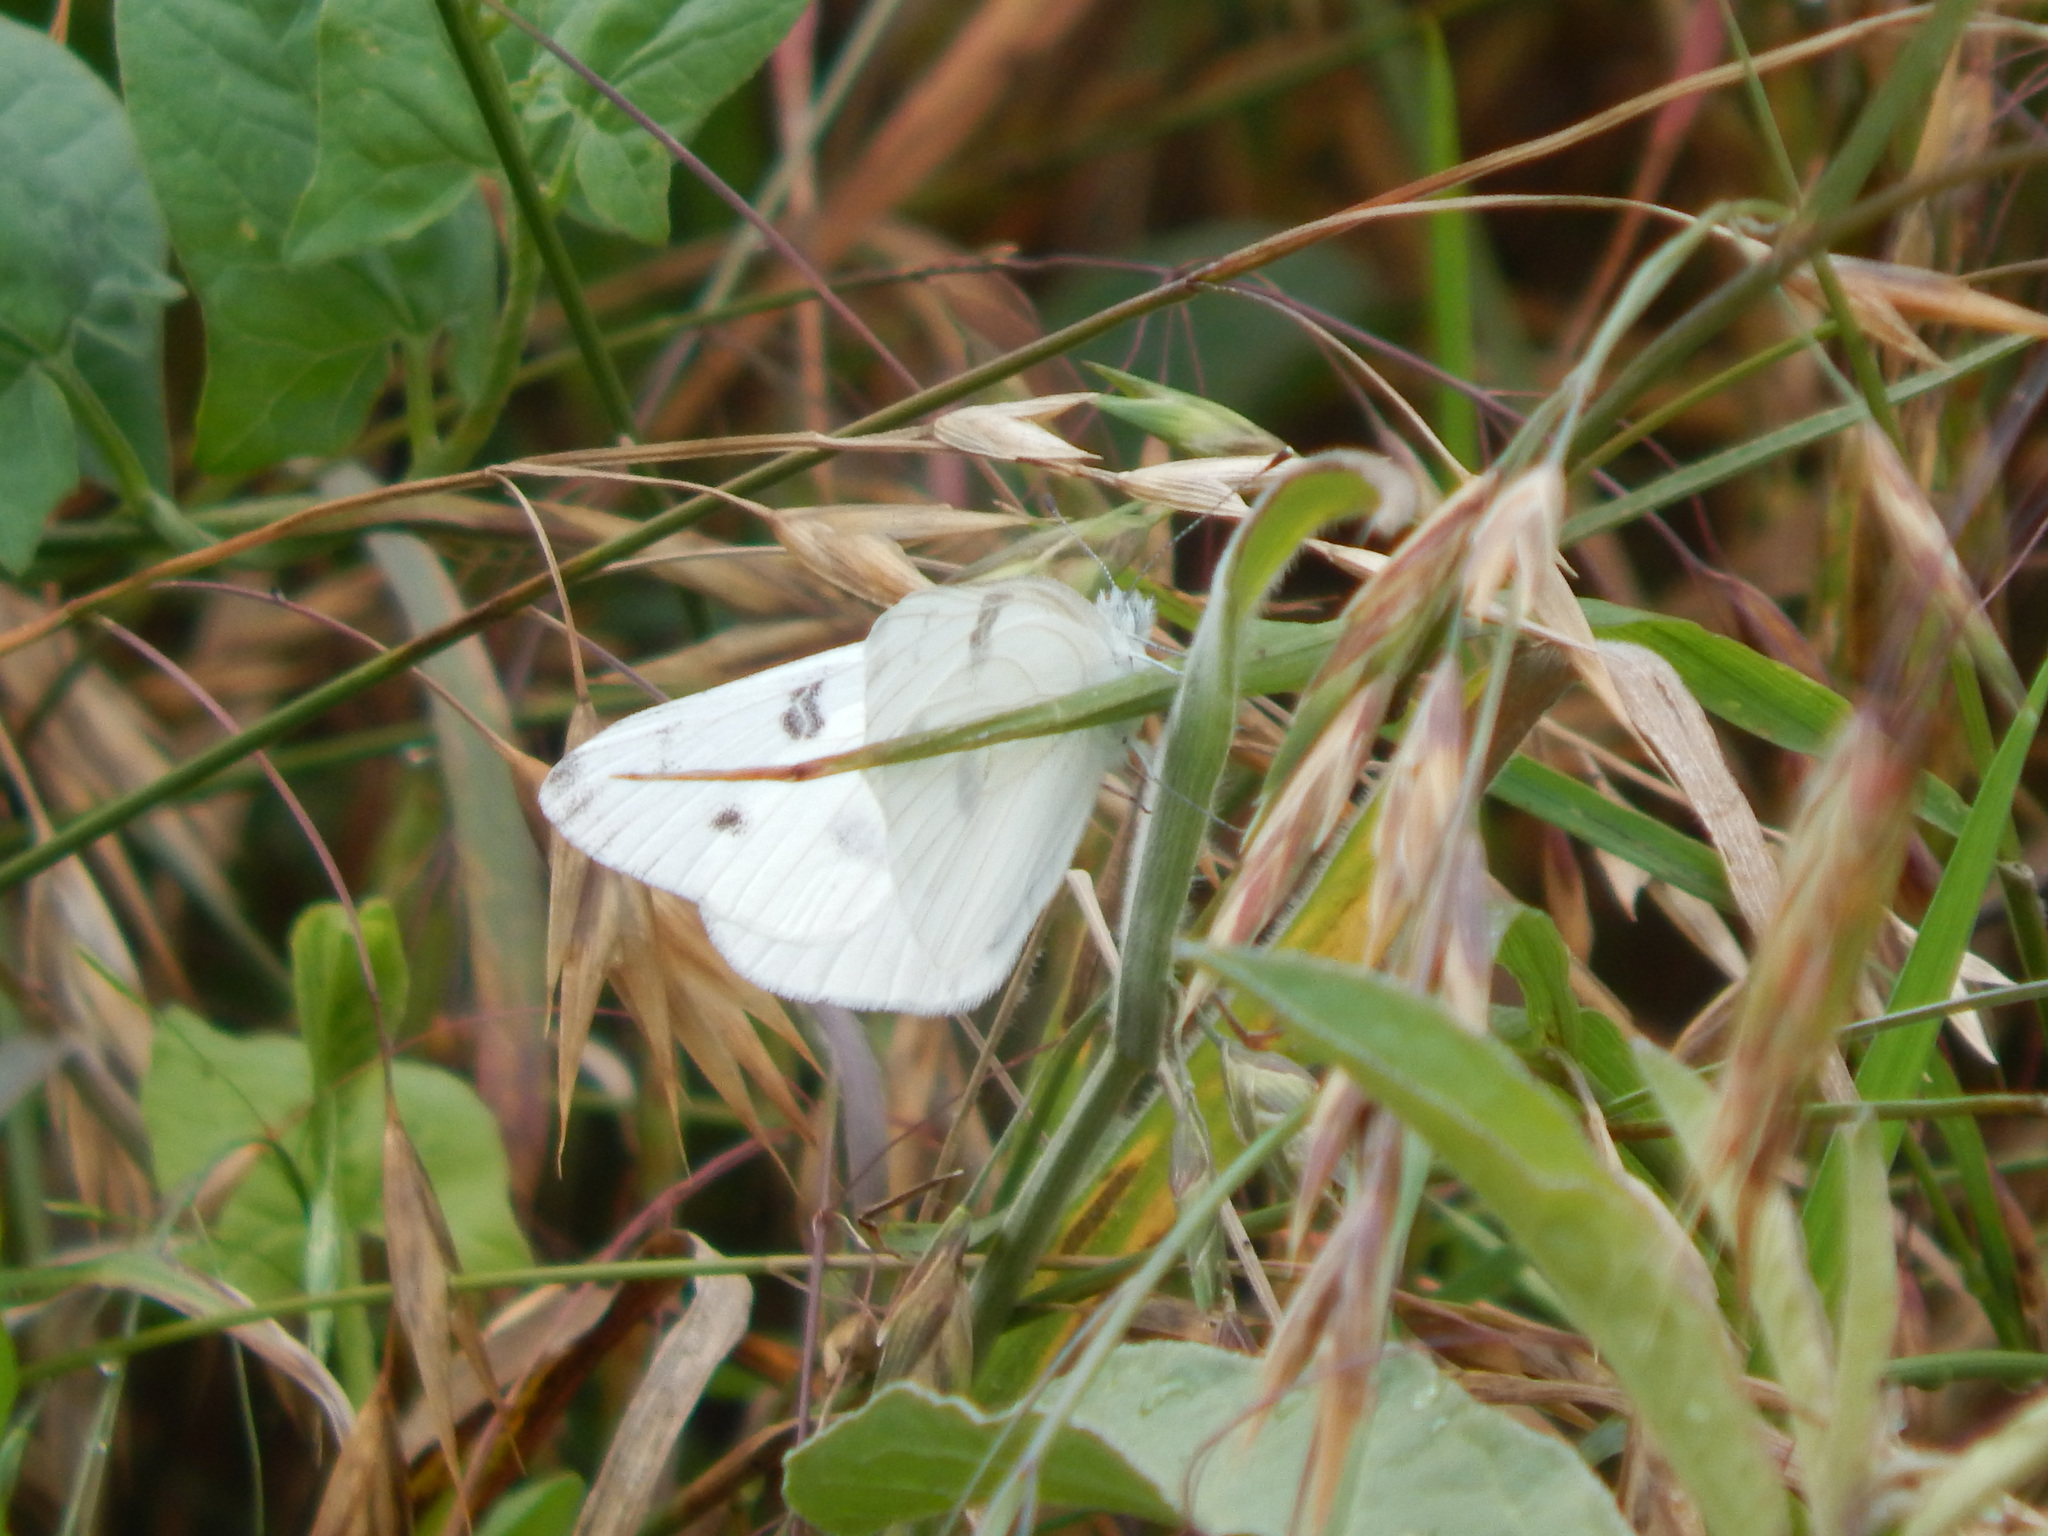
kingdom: Animalia
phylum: Arthropoda
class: Insecta
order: Lepidoptera
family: Pieridae
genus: Pontia
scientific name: Pontia protodice
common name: Checkered white
